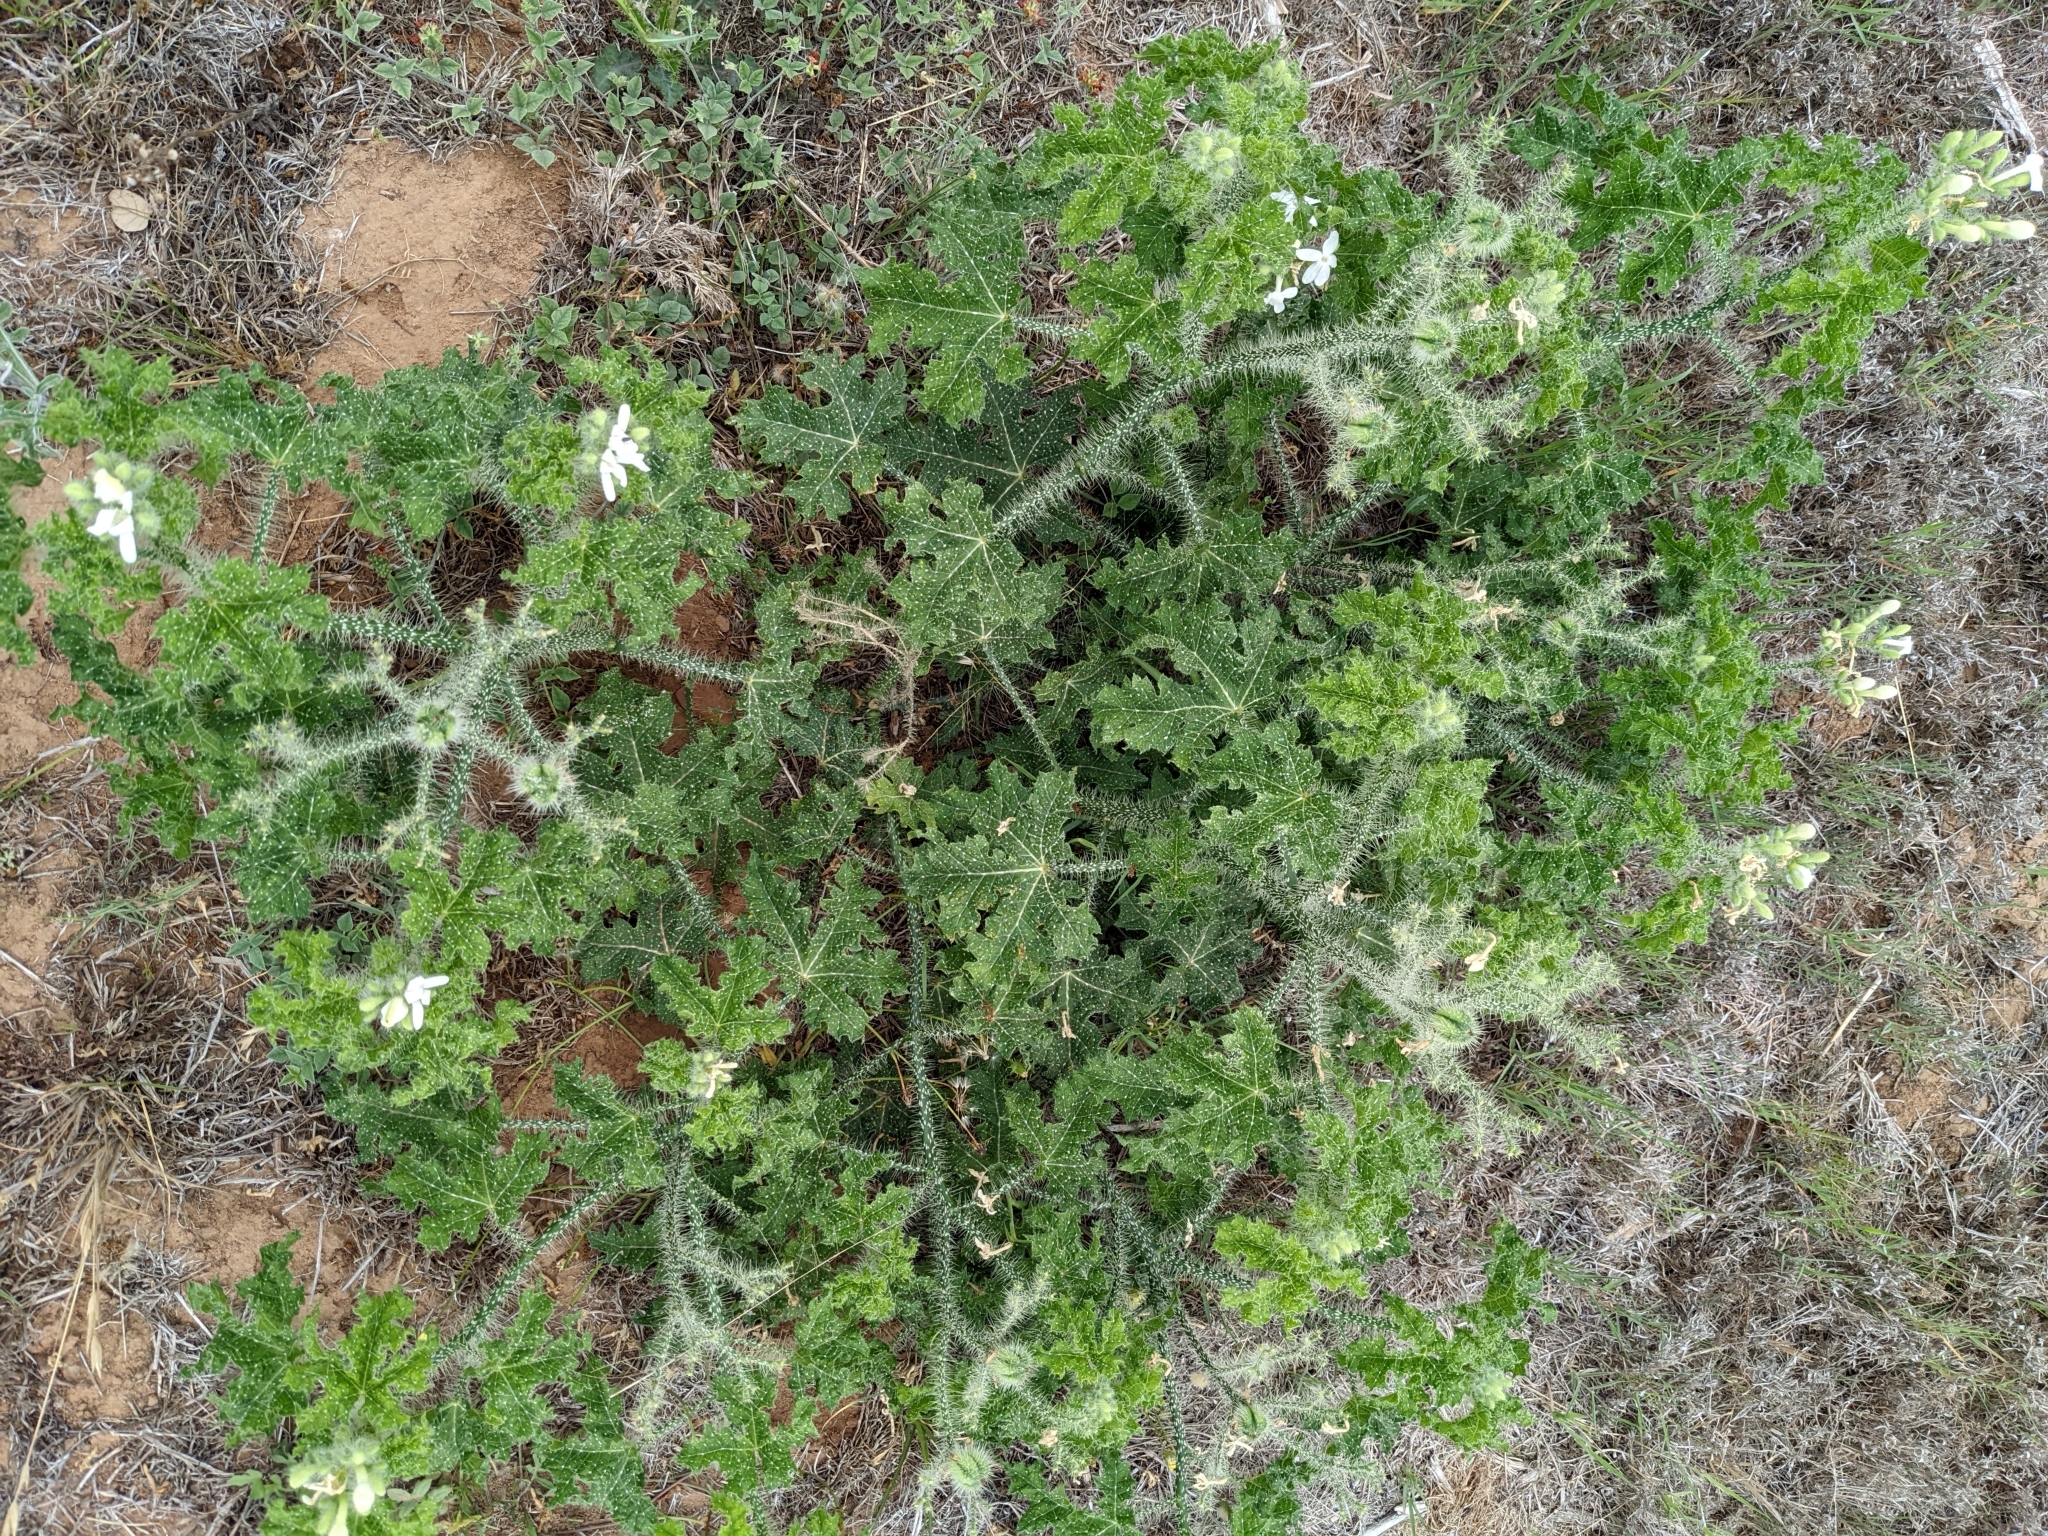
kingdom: Plantae
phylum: Tracheophyta
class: Magnoliopsida
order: Malpighiales
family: Euphorbiaceae
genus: Cnidoscolus
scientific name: Cnidoscolus texanus
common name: Texas bull-nettle
